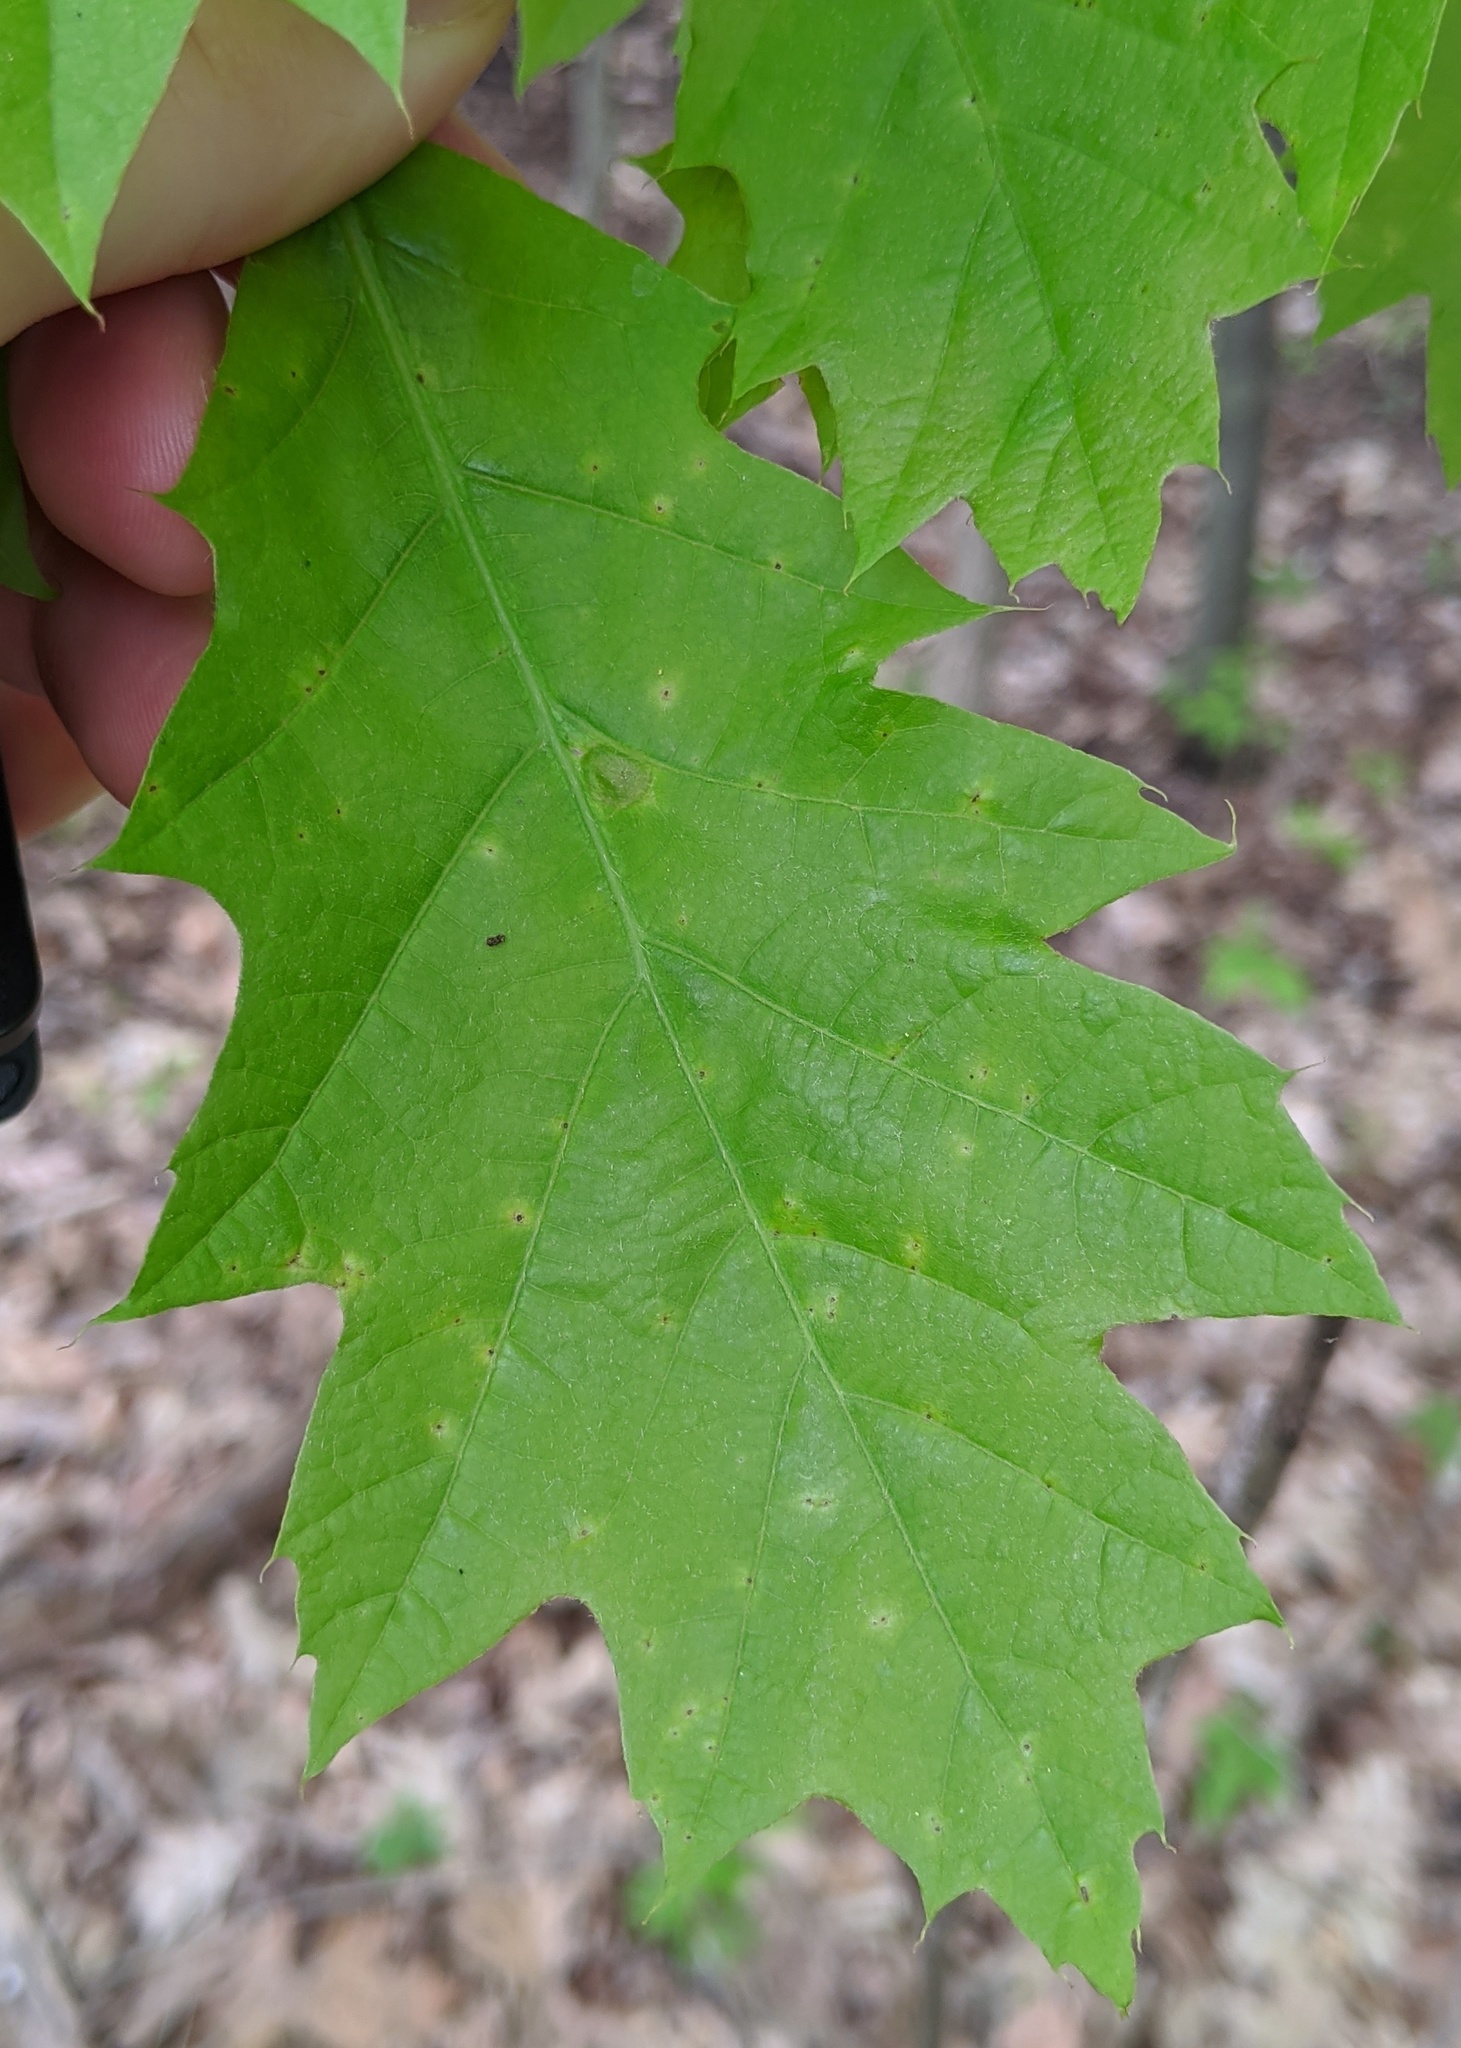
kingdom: Plantae
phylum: Tracheophyta
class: Magnoliopsida
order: Fagales
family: Fagaceae
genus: Quercus
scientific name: Quercus rubra
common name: Red oak
